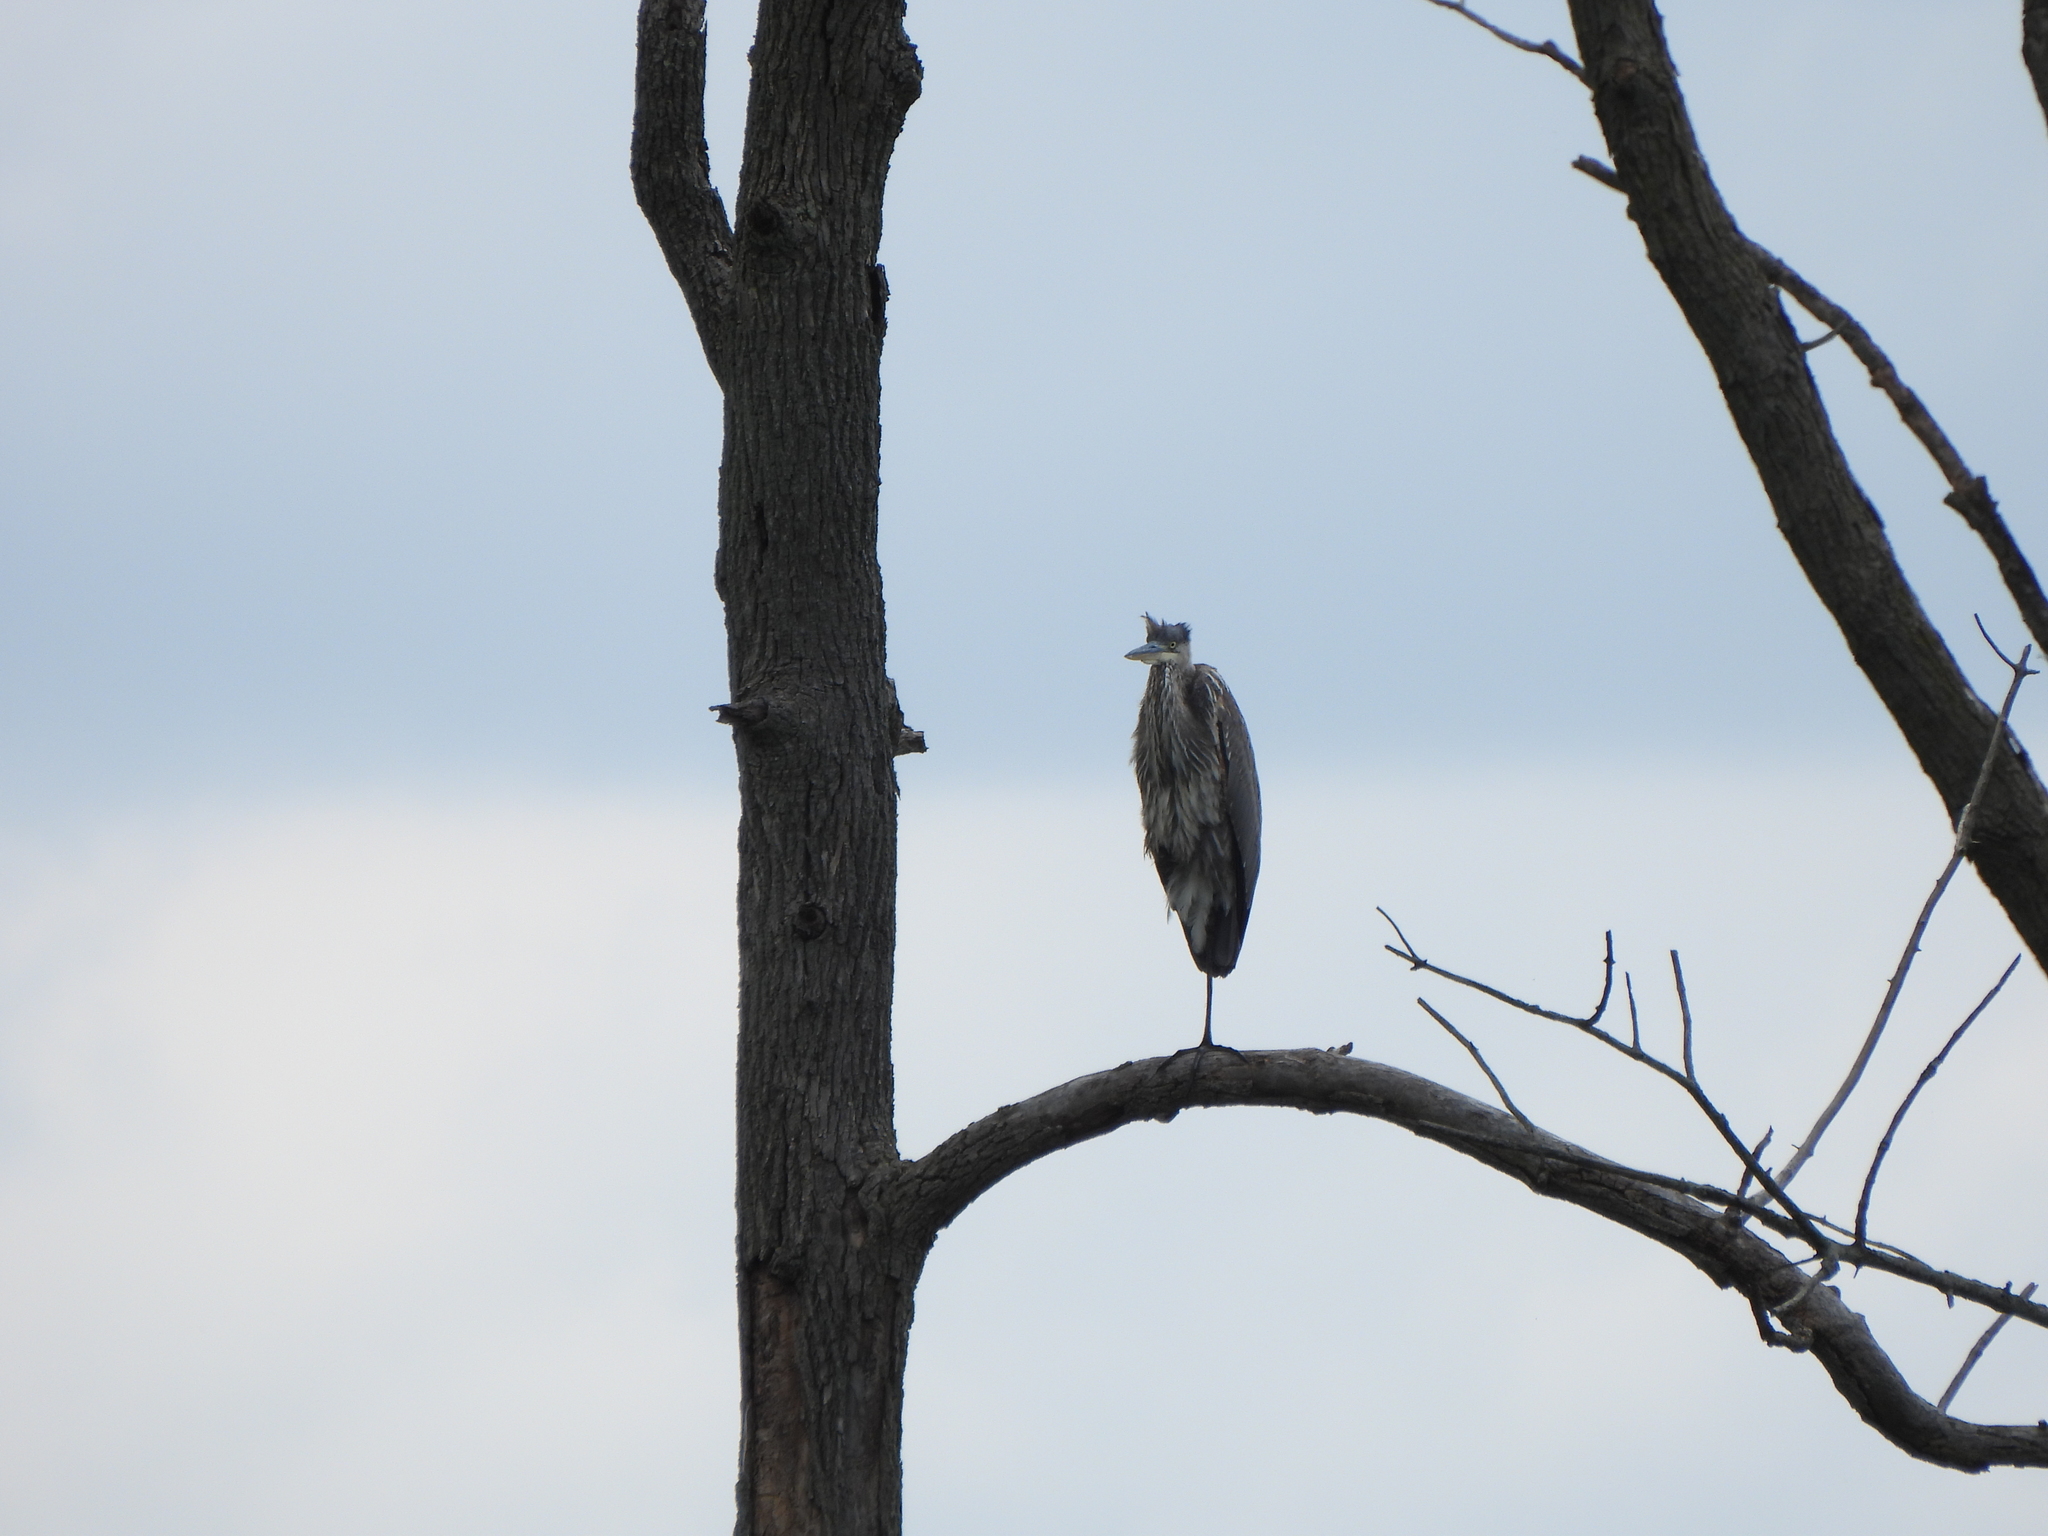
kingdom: Animalia
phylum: Chordata
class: Aves
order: Pelecaniformes
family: Ardeidae
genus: Ardea
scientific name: Ardea herodias
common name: Great blue heron
